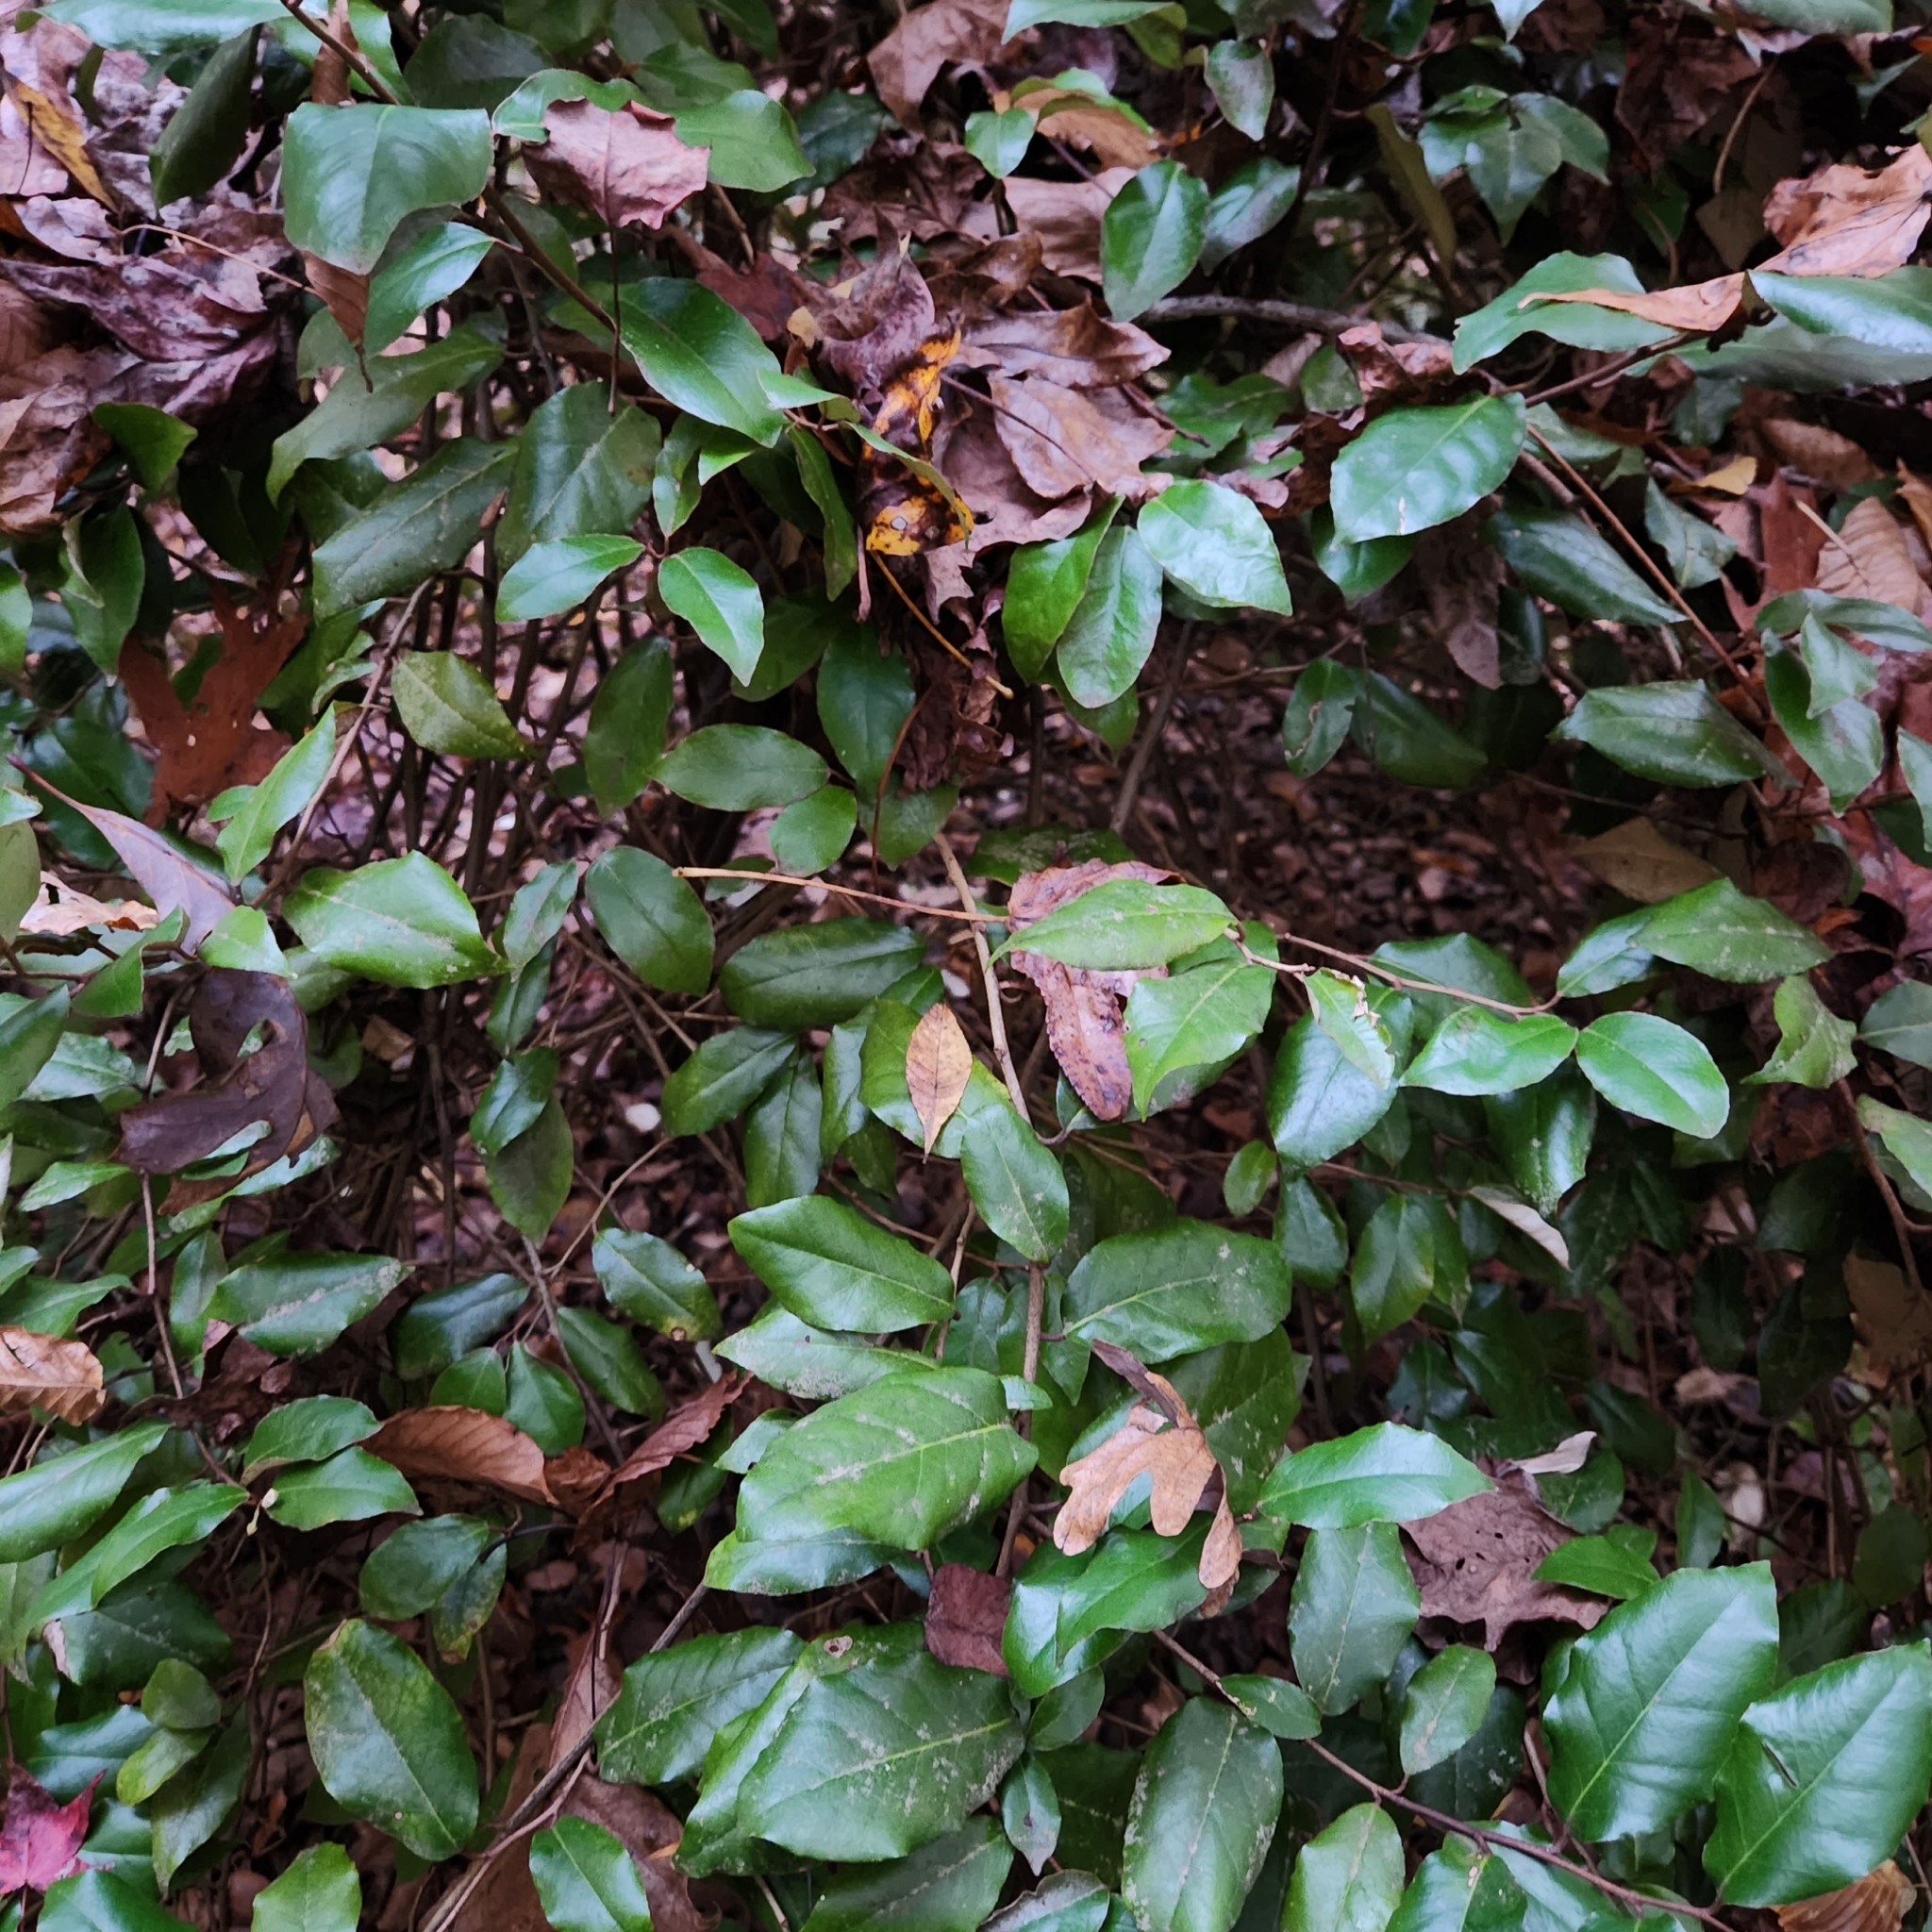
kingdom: Plantae
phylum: Tracheophyta
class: Magnoliopsida
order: Rosales
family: Elaeagnaceae
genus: Elaeagnus
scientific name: Elaeagnus pungens
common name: Spiny oleaster
